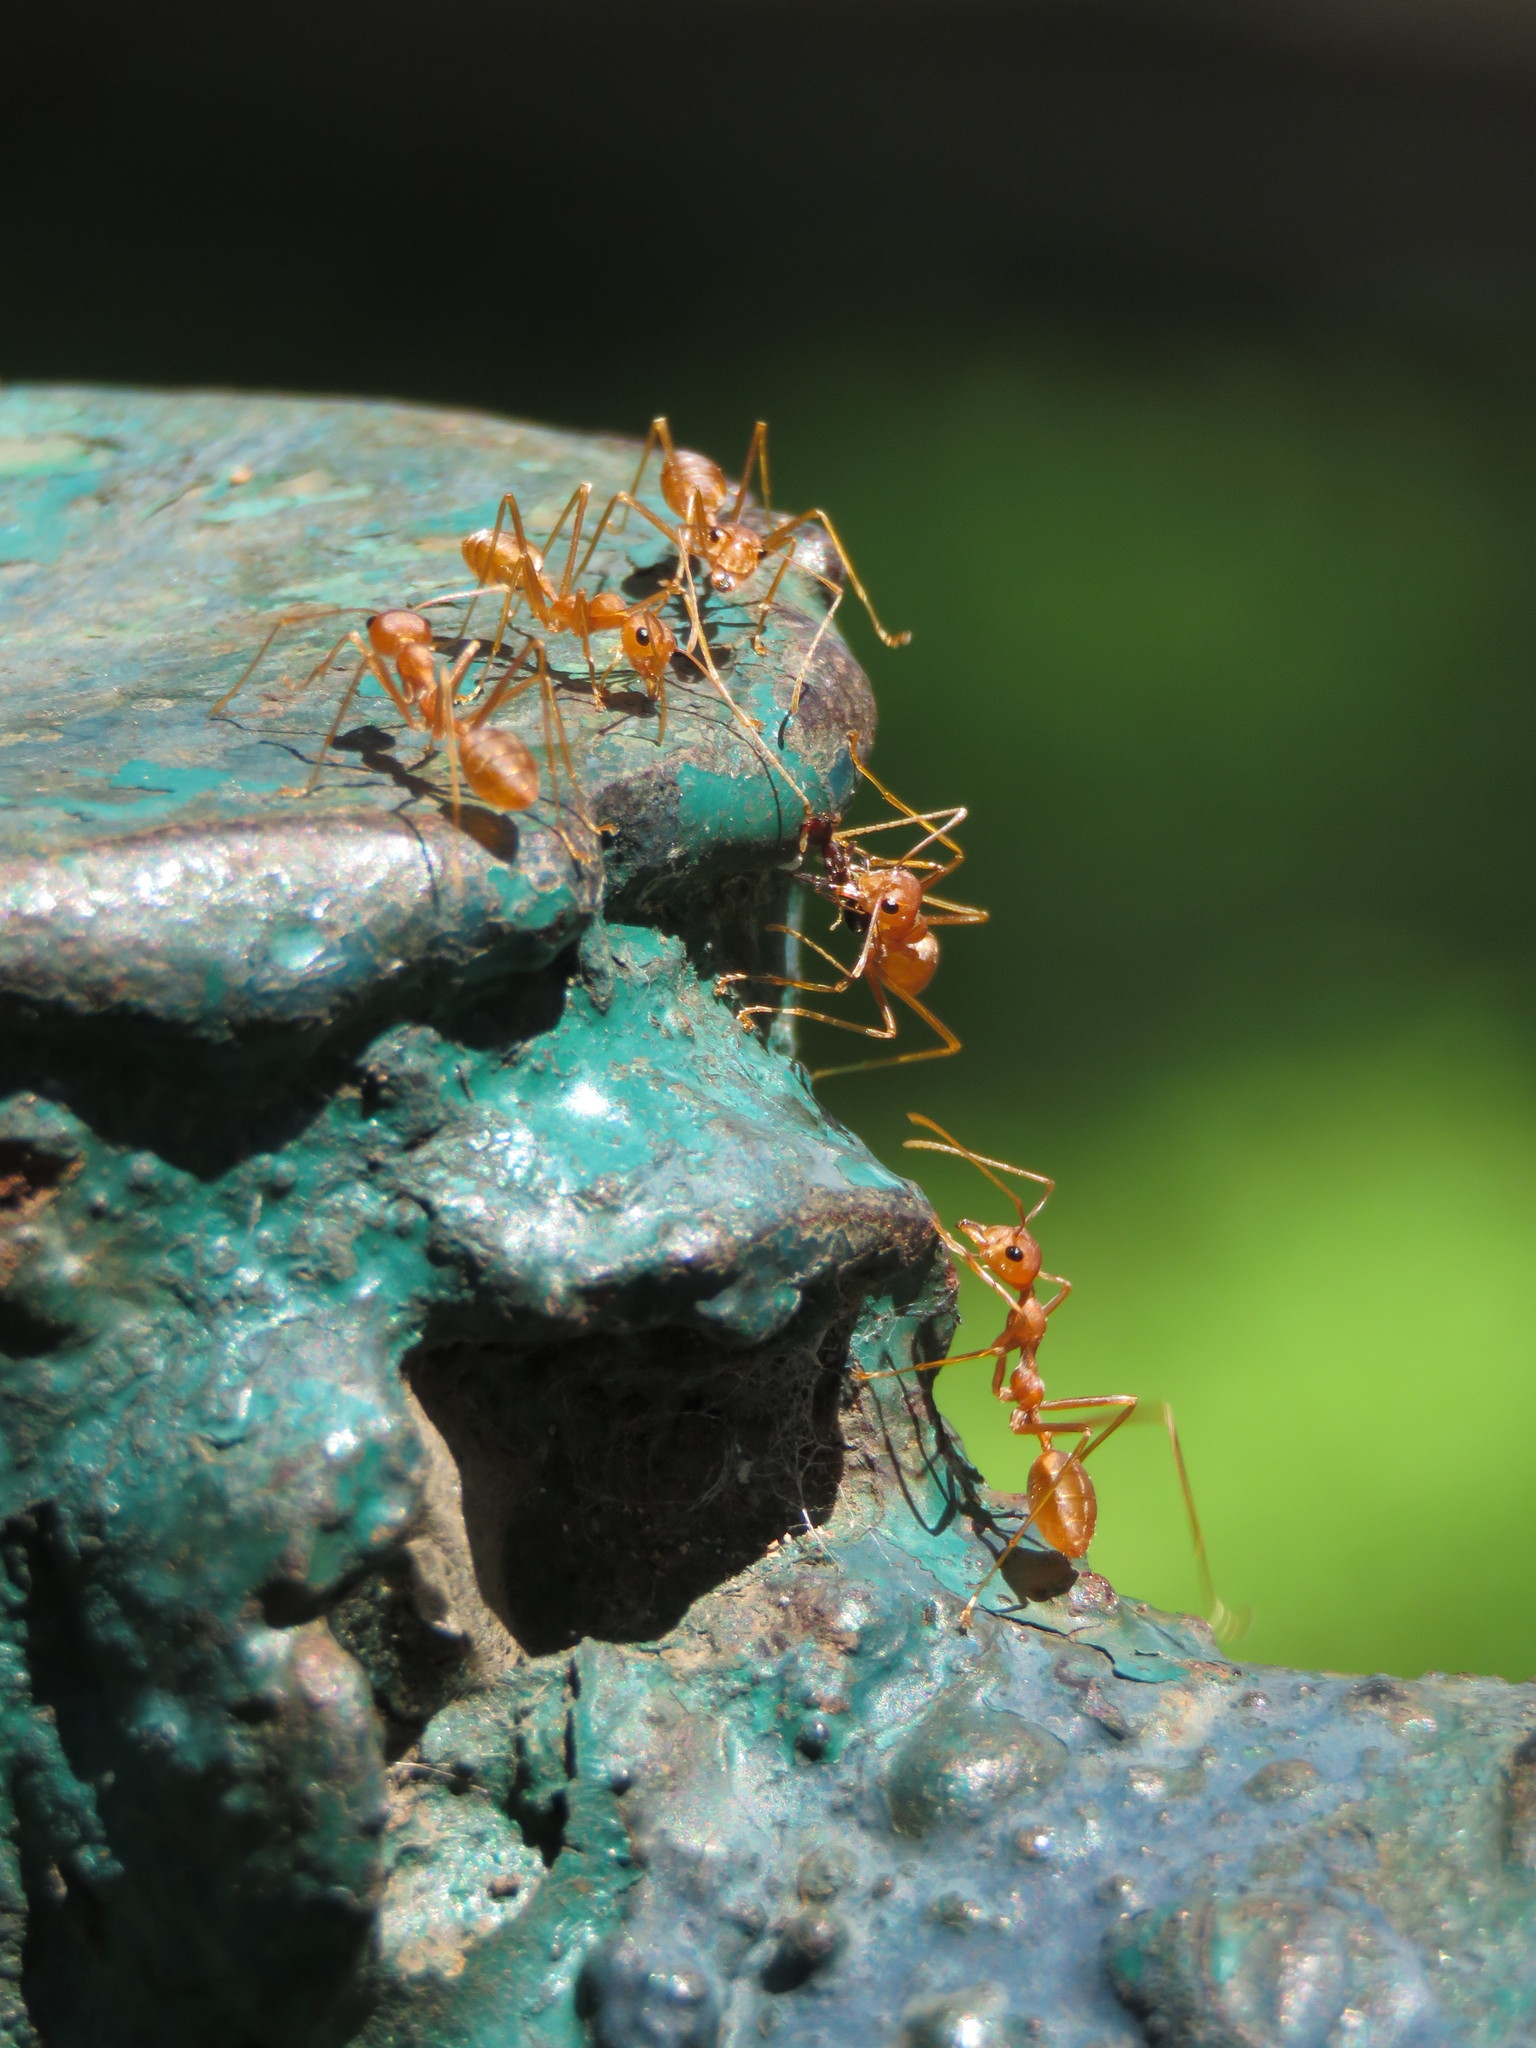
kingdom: Animalia
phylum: Arthropoda
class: Insecta
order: Hymenoptera
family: Formicidae
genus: Oecophylla
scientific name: Oecophylla smaragdina
